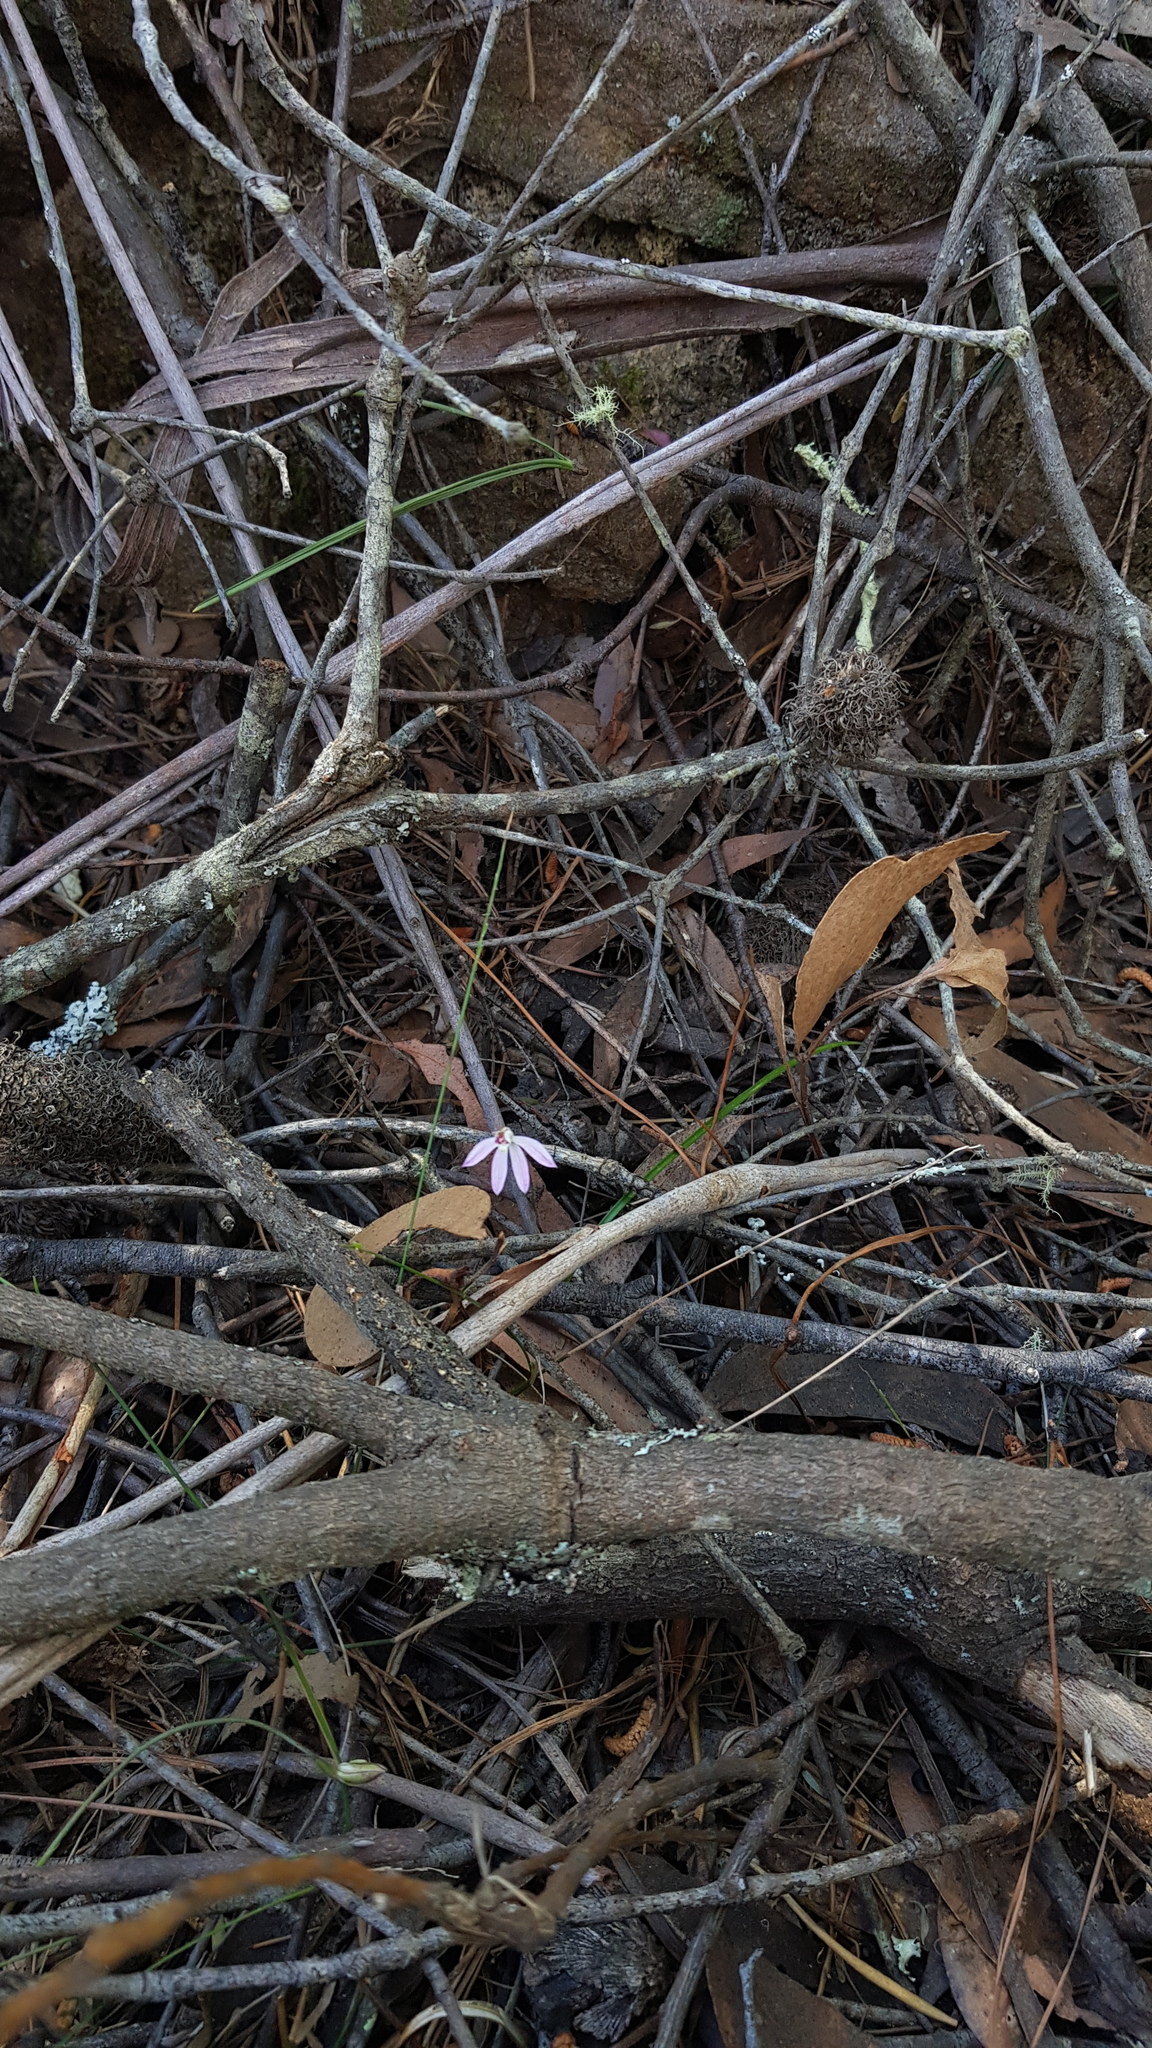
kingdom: Plantae
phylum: Tracheophyta
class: Liliopsida
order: Asparagales
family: Orchidaceae
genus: Caladenia
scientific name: Caladenia carnea
